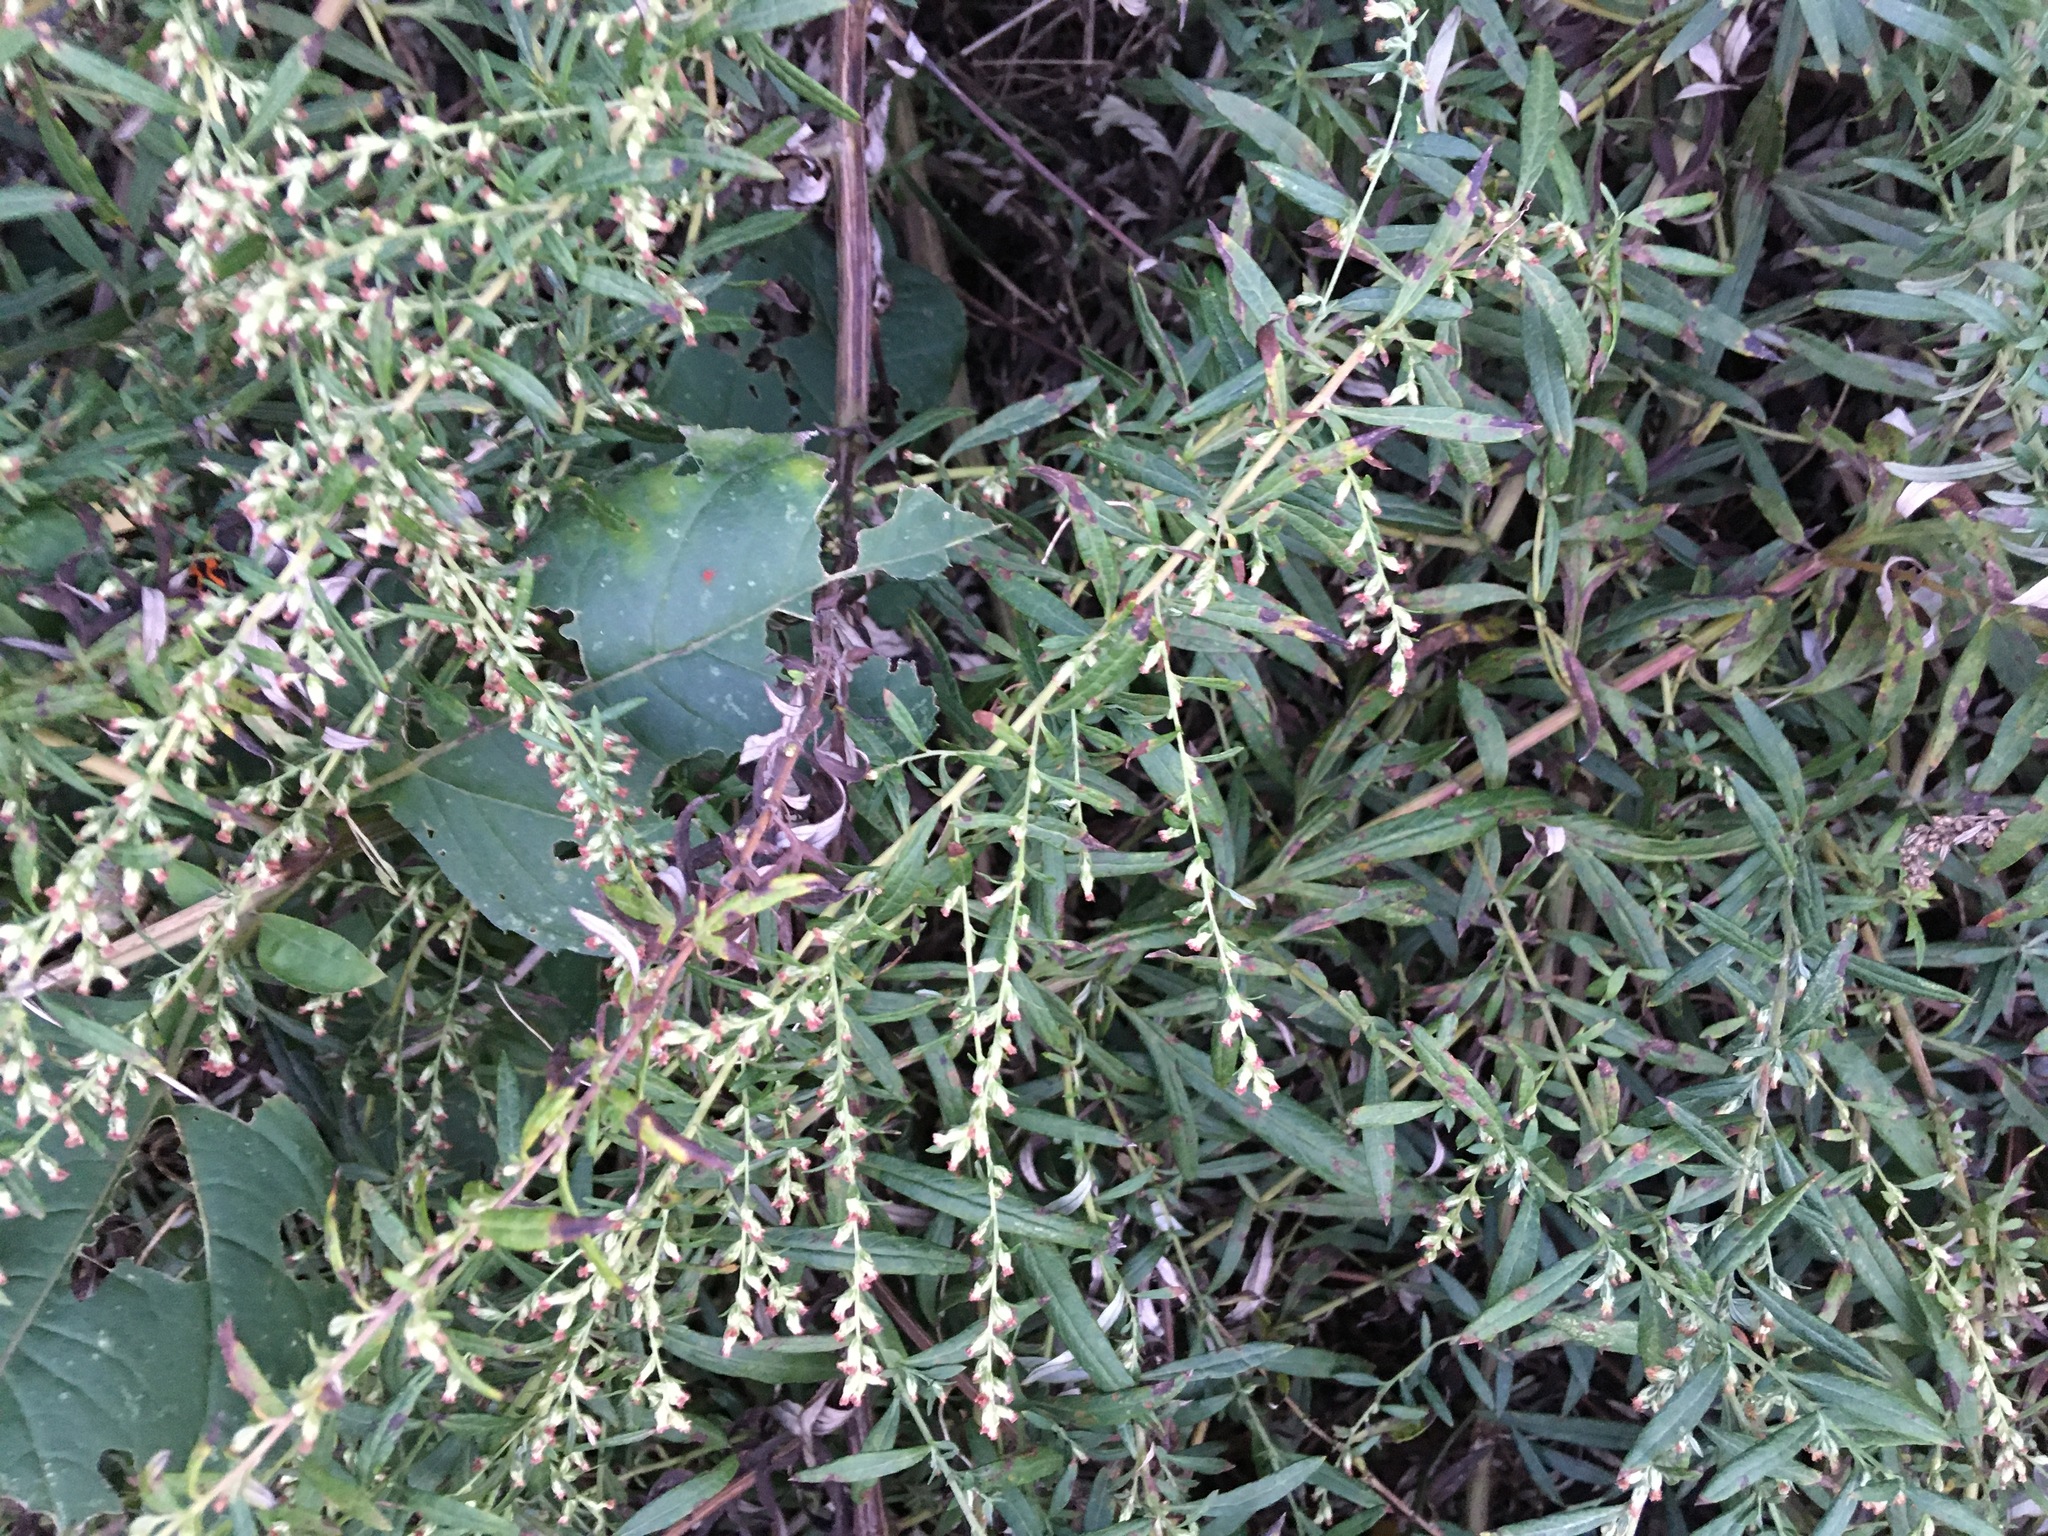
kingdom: Plantae
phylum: Tracheophyta
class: Magnoliopsida
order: Asterales
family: Asteraceae
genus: Artemisia
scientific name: Artemisia vulgaris
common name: Mugwort
